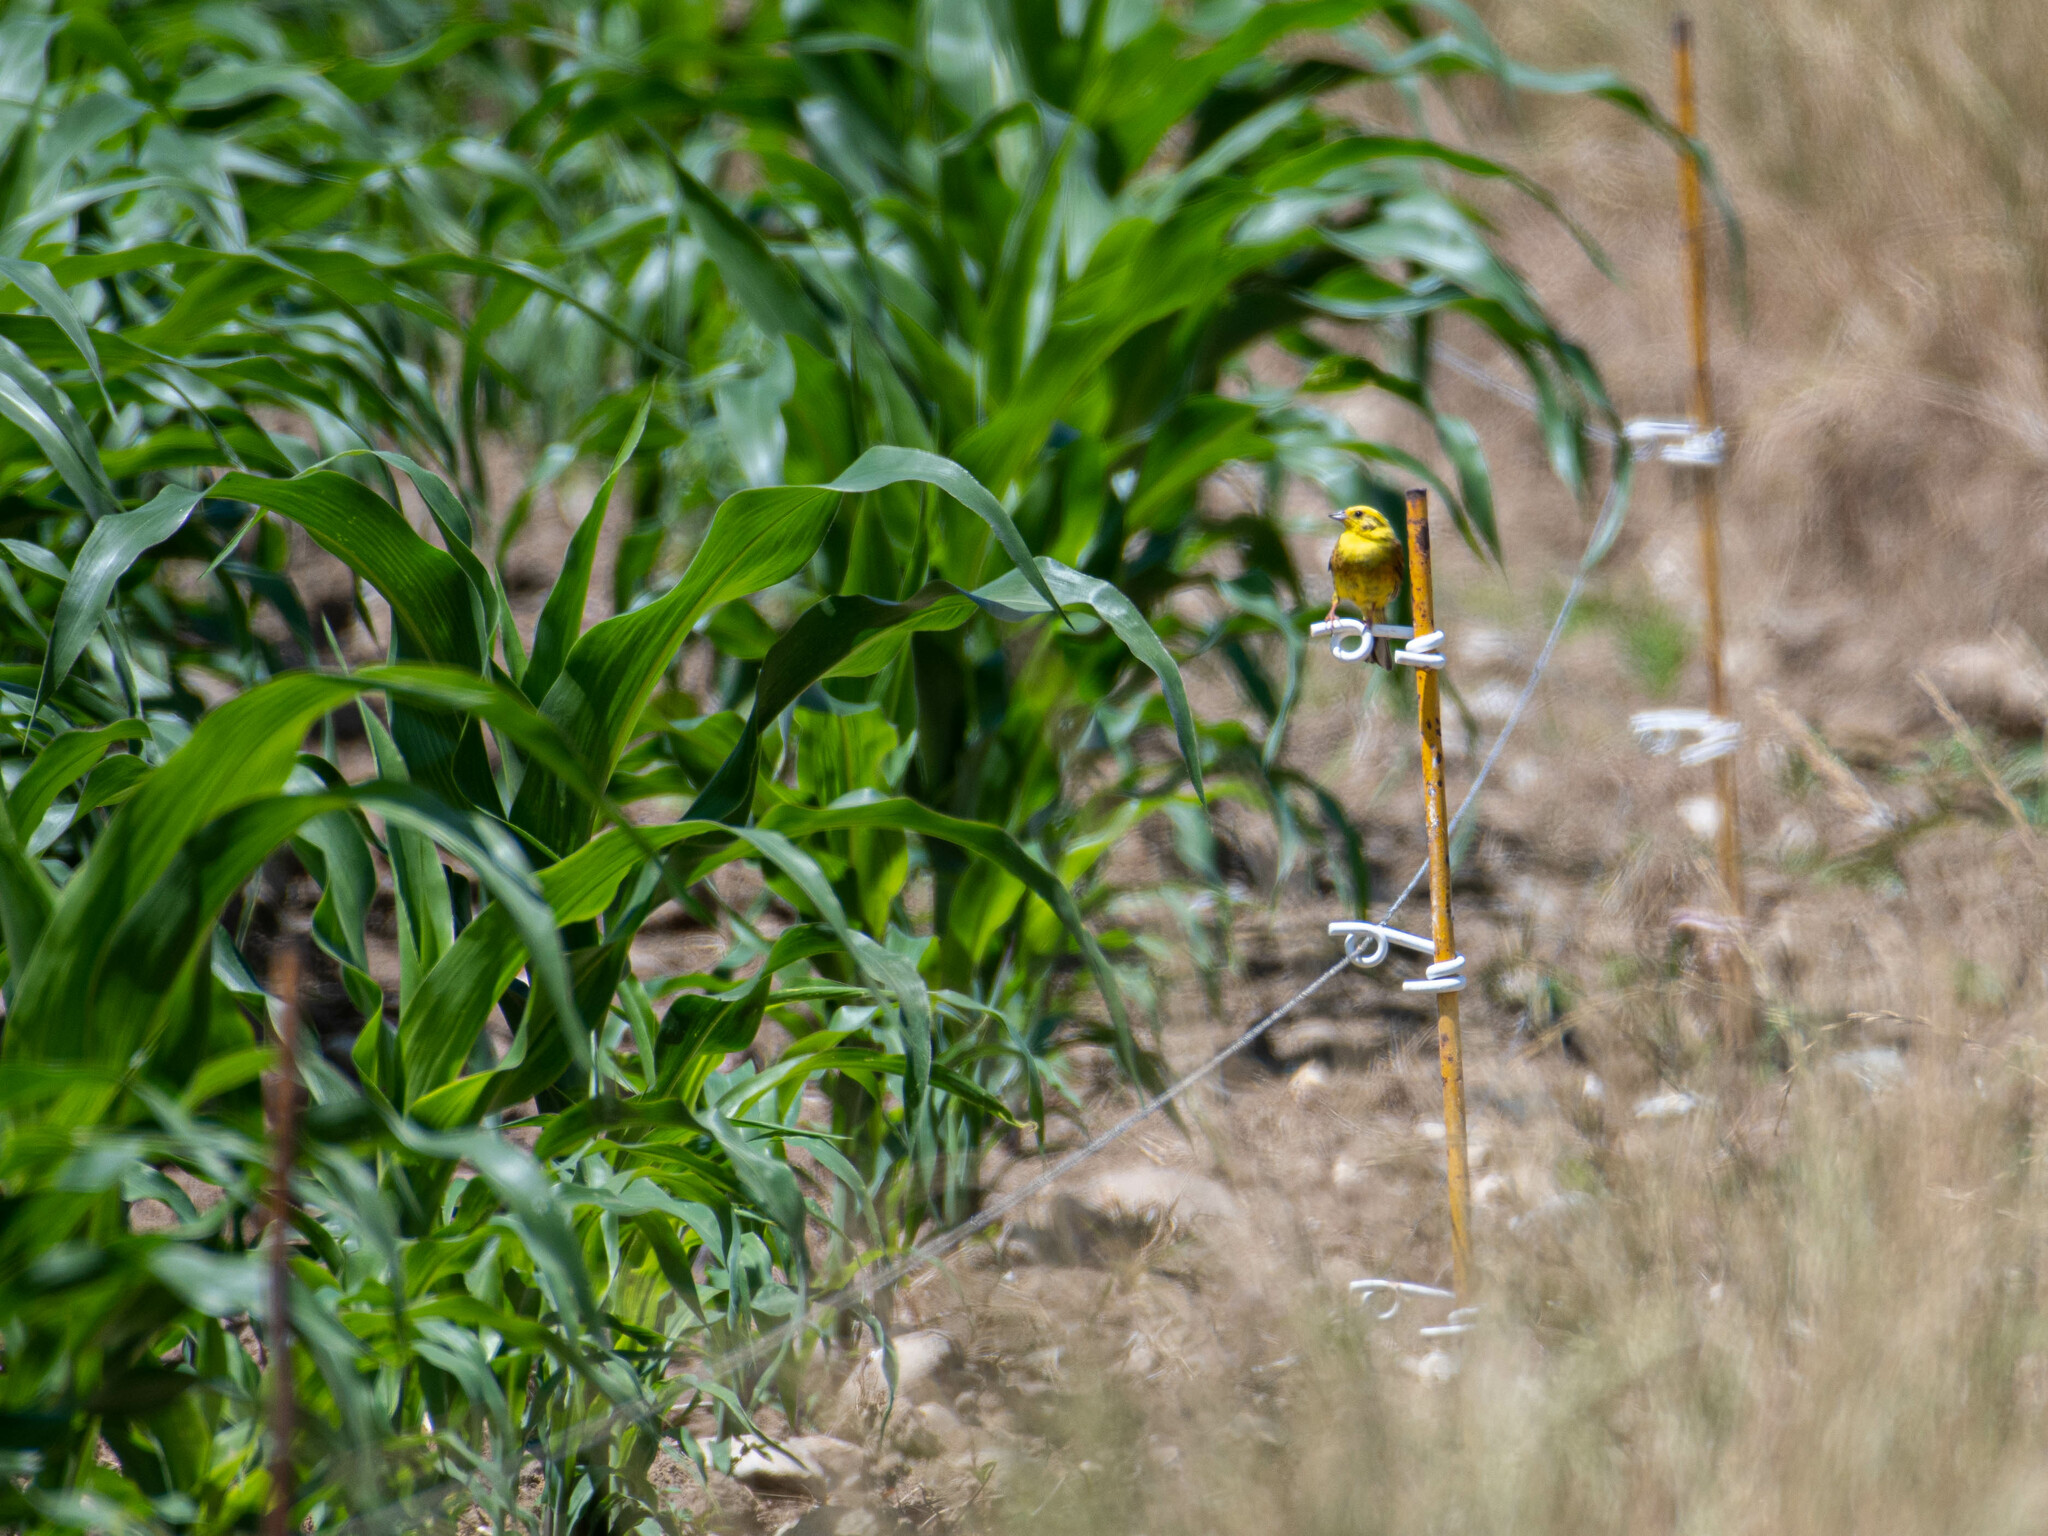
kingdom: Animalia
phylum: Chordata
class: Aves
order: Passeriformes
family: Emberizidae
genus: Emberiza
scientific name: Emberiza citrinella
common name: Yellowhammer
